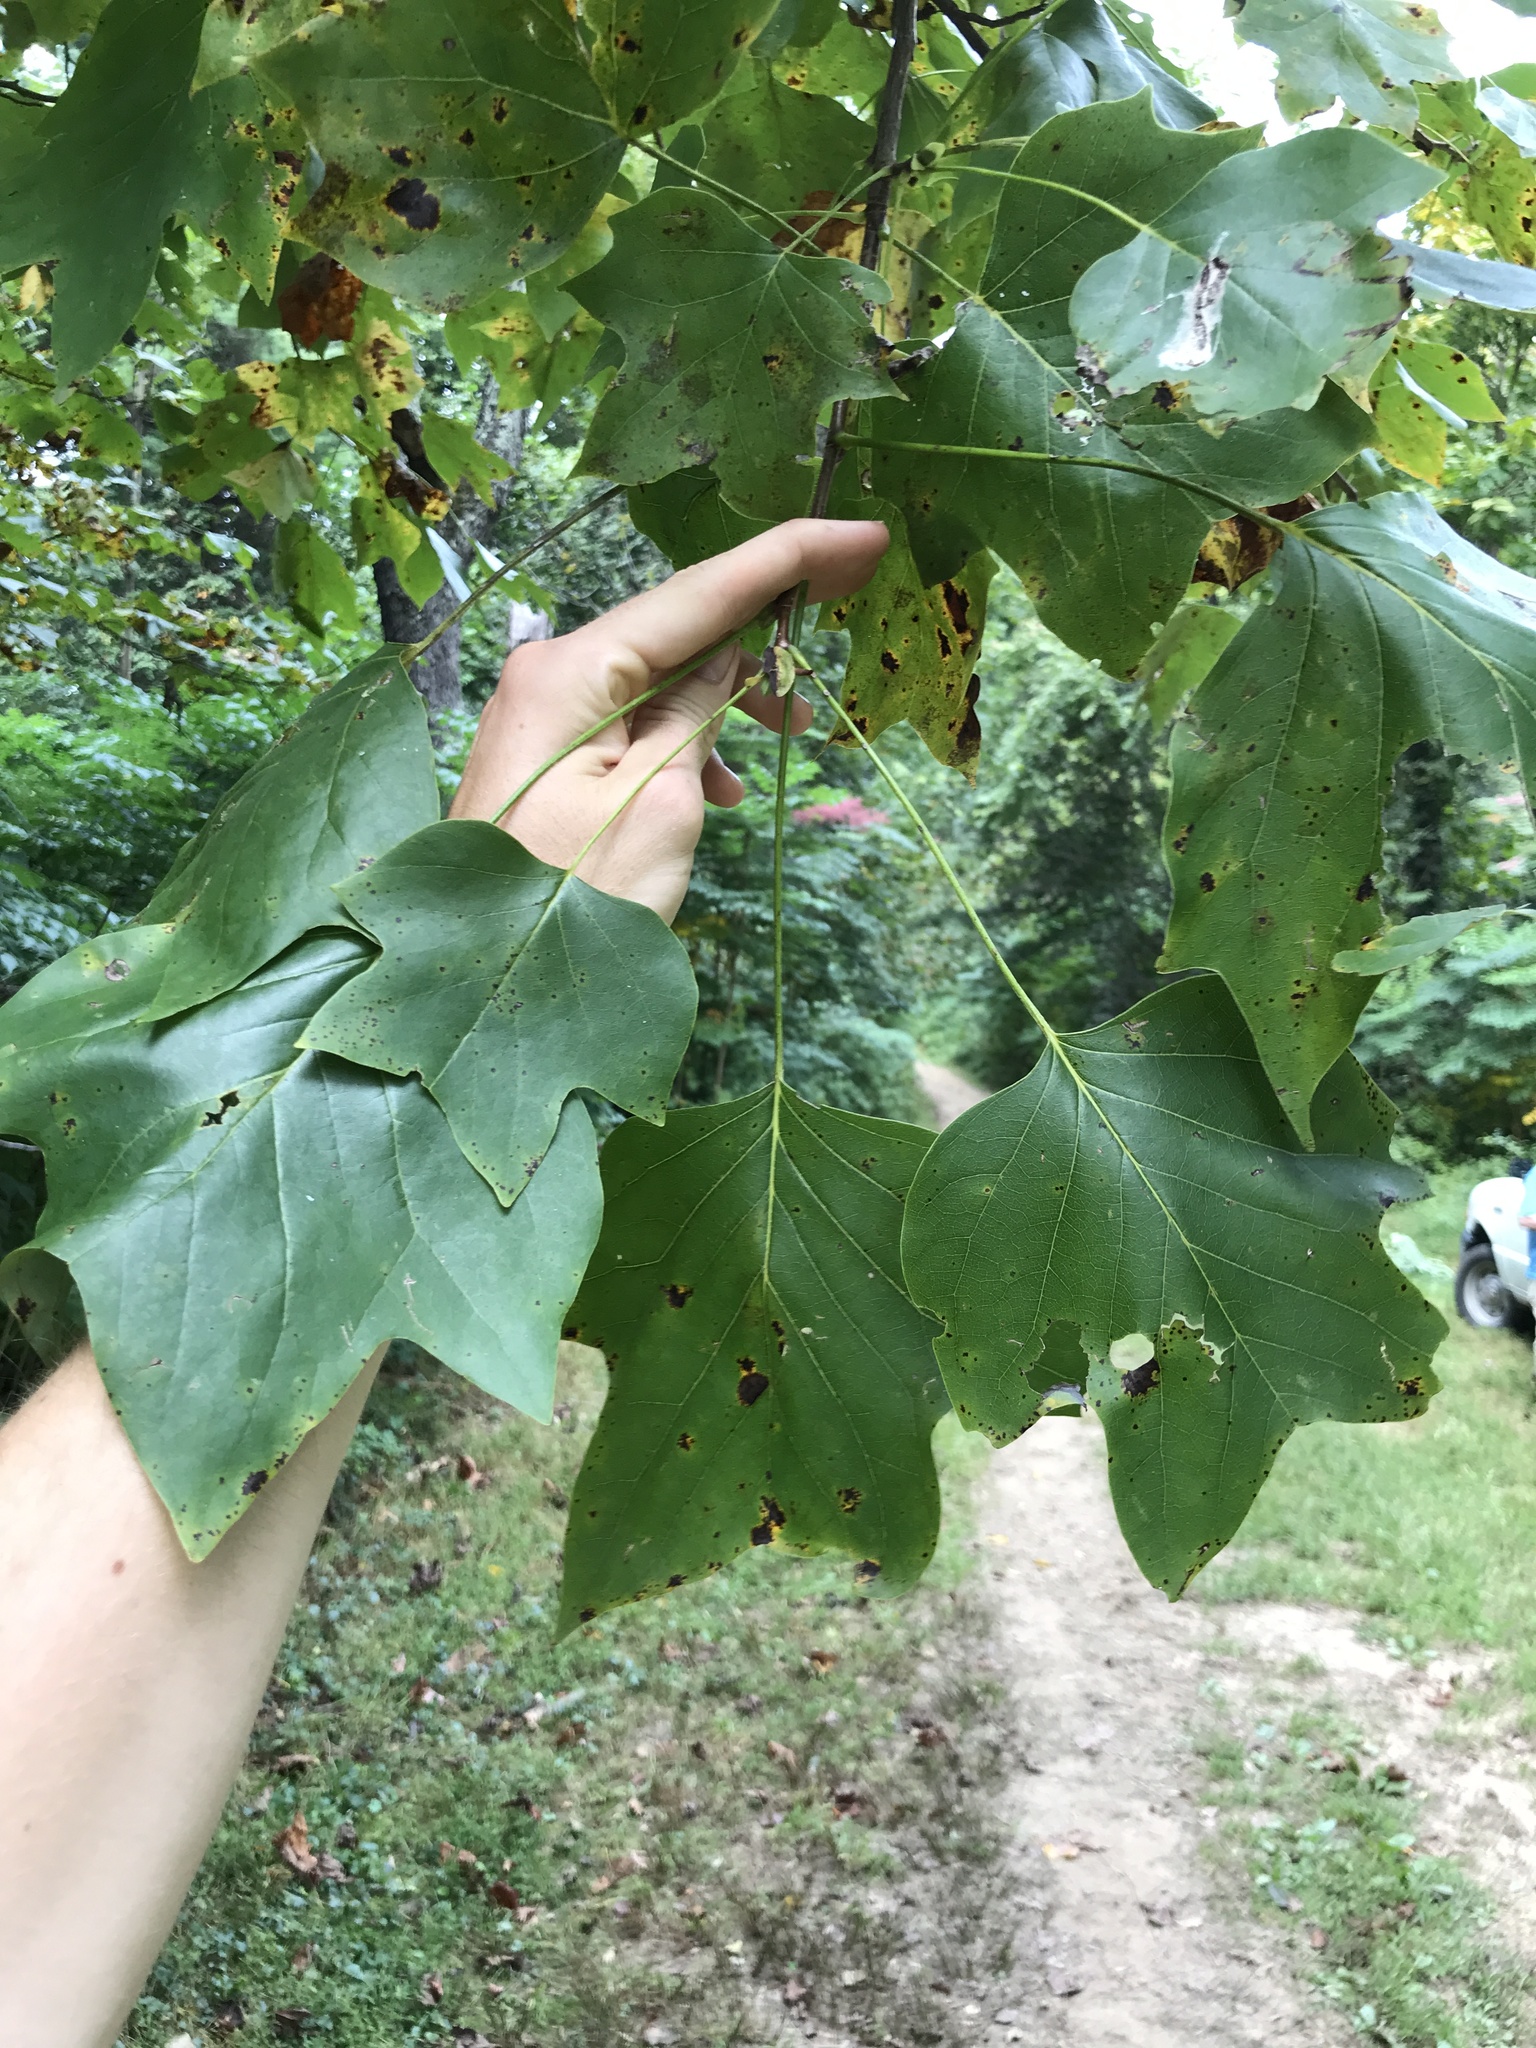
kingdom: Plantae
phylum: Tracheophyta
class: Magnoliopsida
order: Magnoliales
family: Magnoliaceae
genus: Liriodendron
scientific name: Liriodendron tulipifera
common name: Tulip tree
